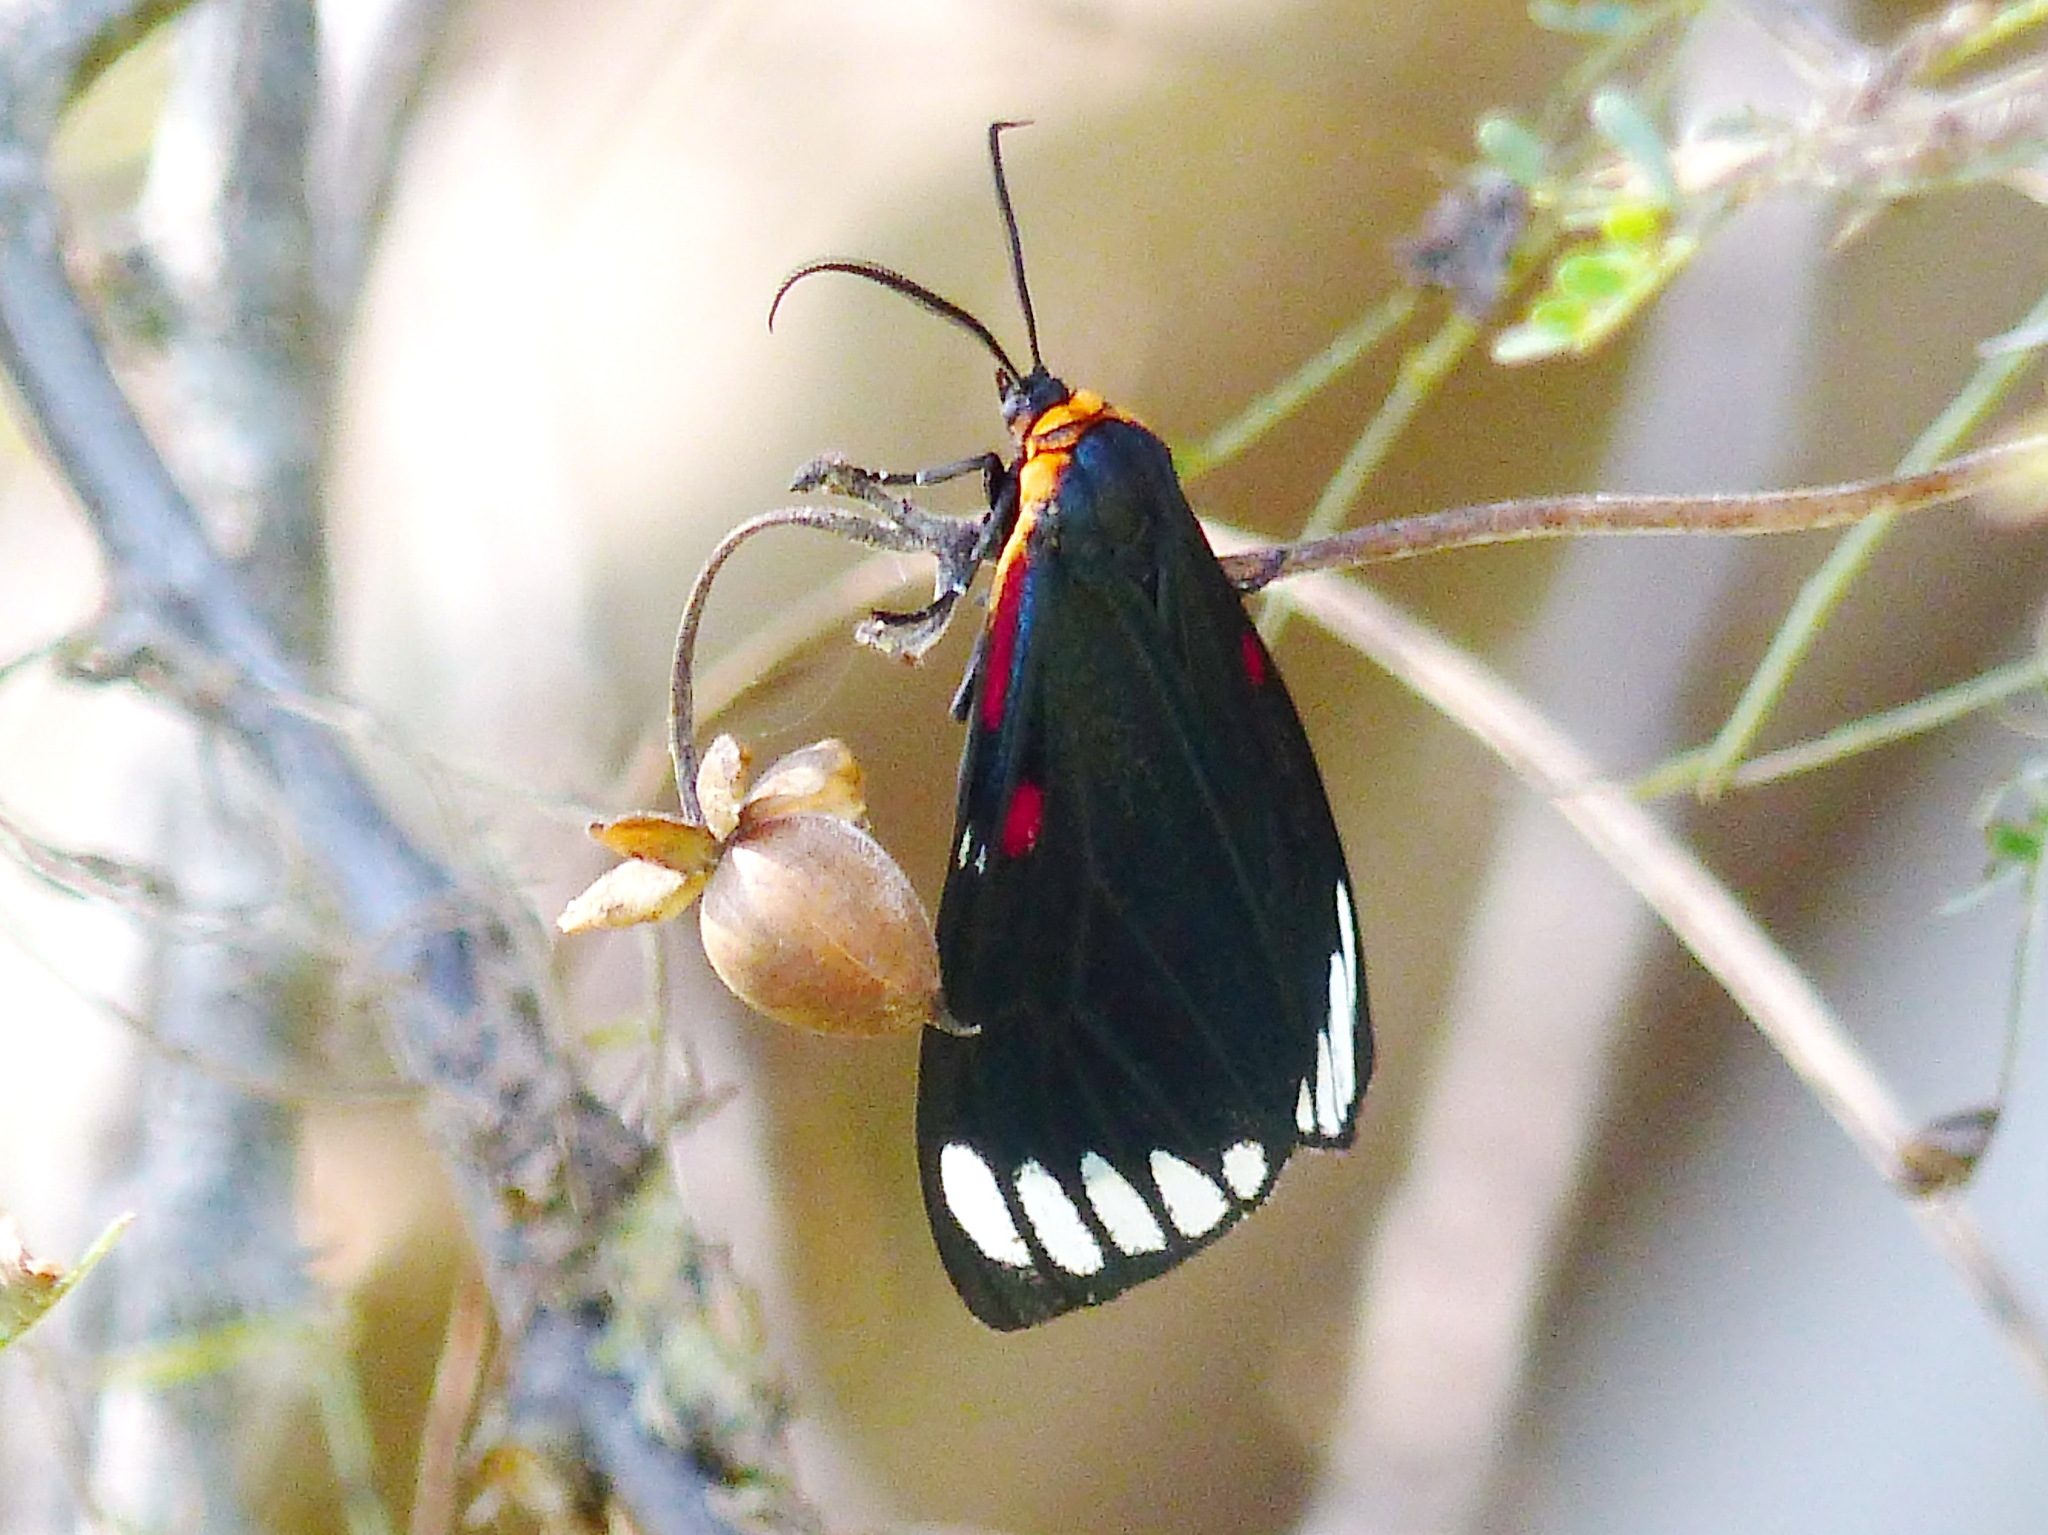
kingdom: Animalia
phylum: Arthropoda
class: Insecta
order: Lepidoptera
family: Erebidae
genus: Phaloesia
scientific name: Phaloesia saucia
